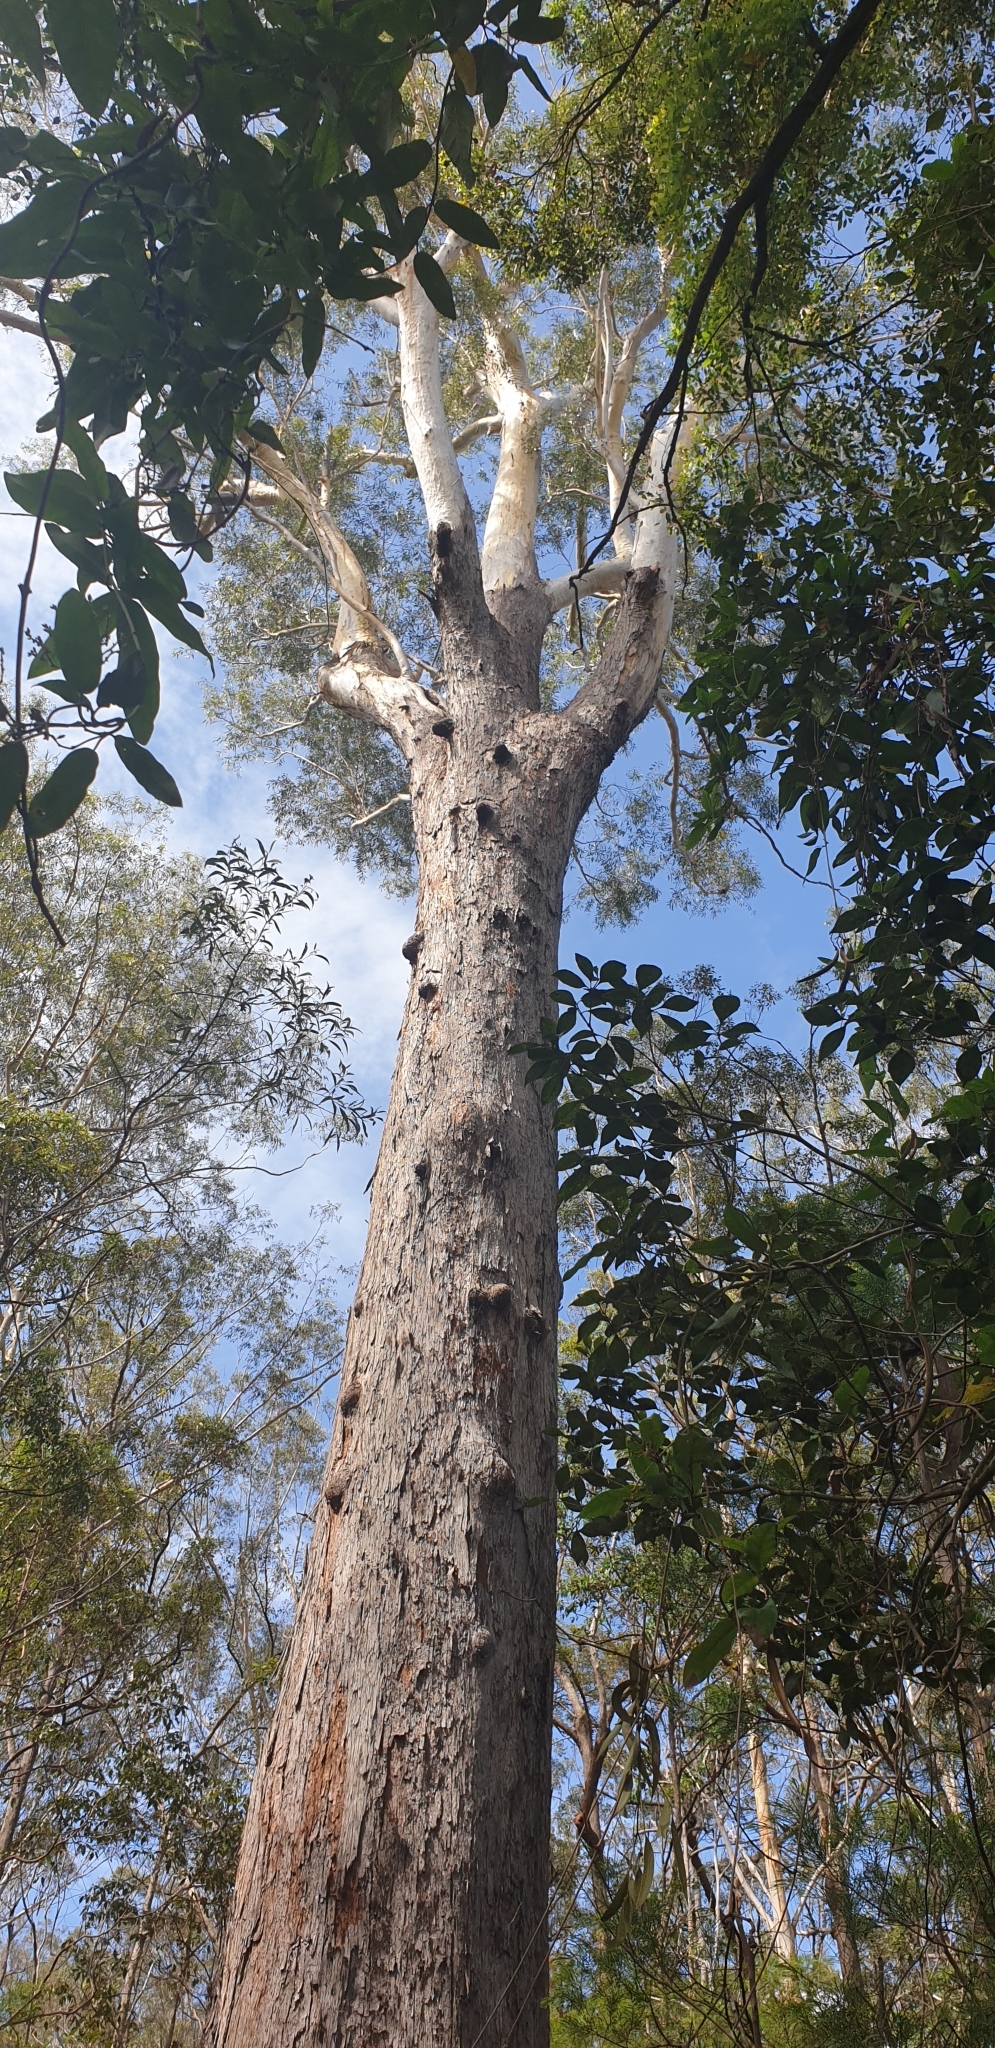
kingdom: Plantae
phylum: Tracheophyta
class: Magnoliopsida
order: Myrtales
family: Myrtaceae
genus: Eucalyptus
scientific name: Eucalyptus pilularis
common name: Blackbutt
